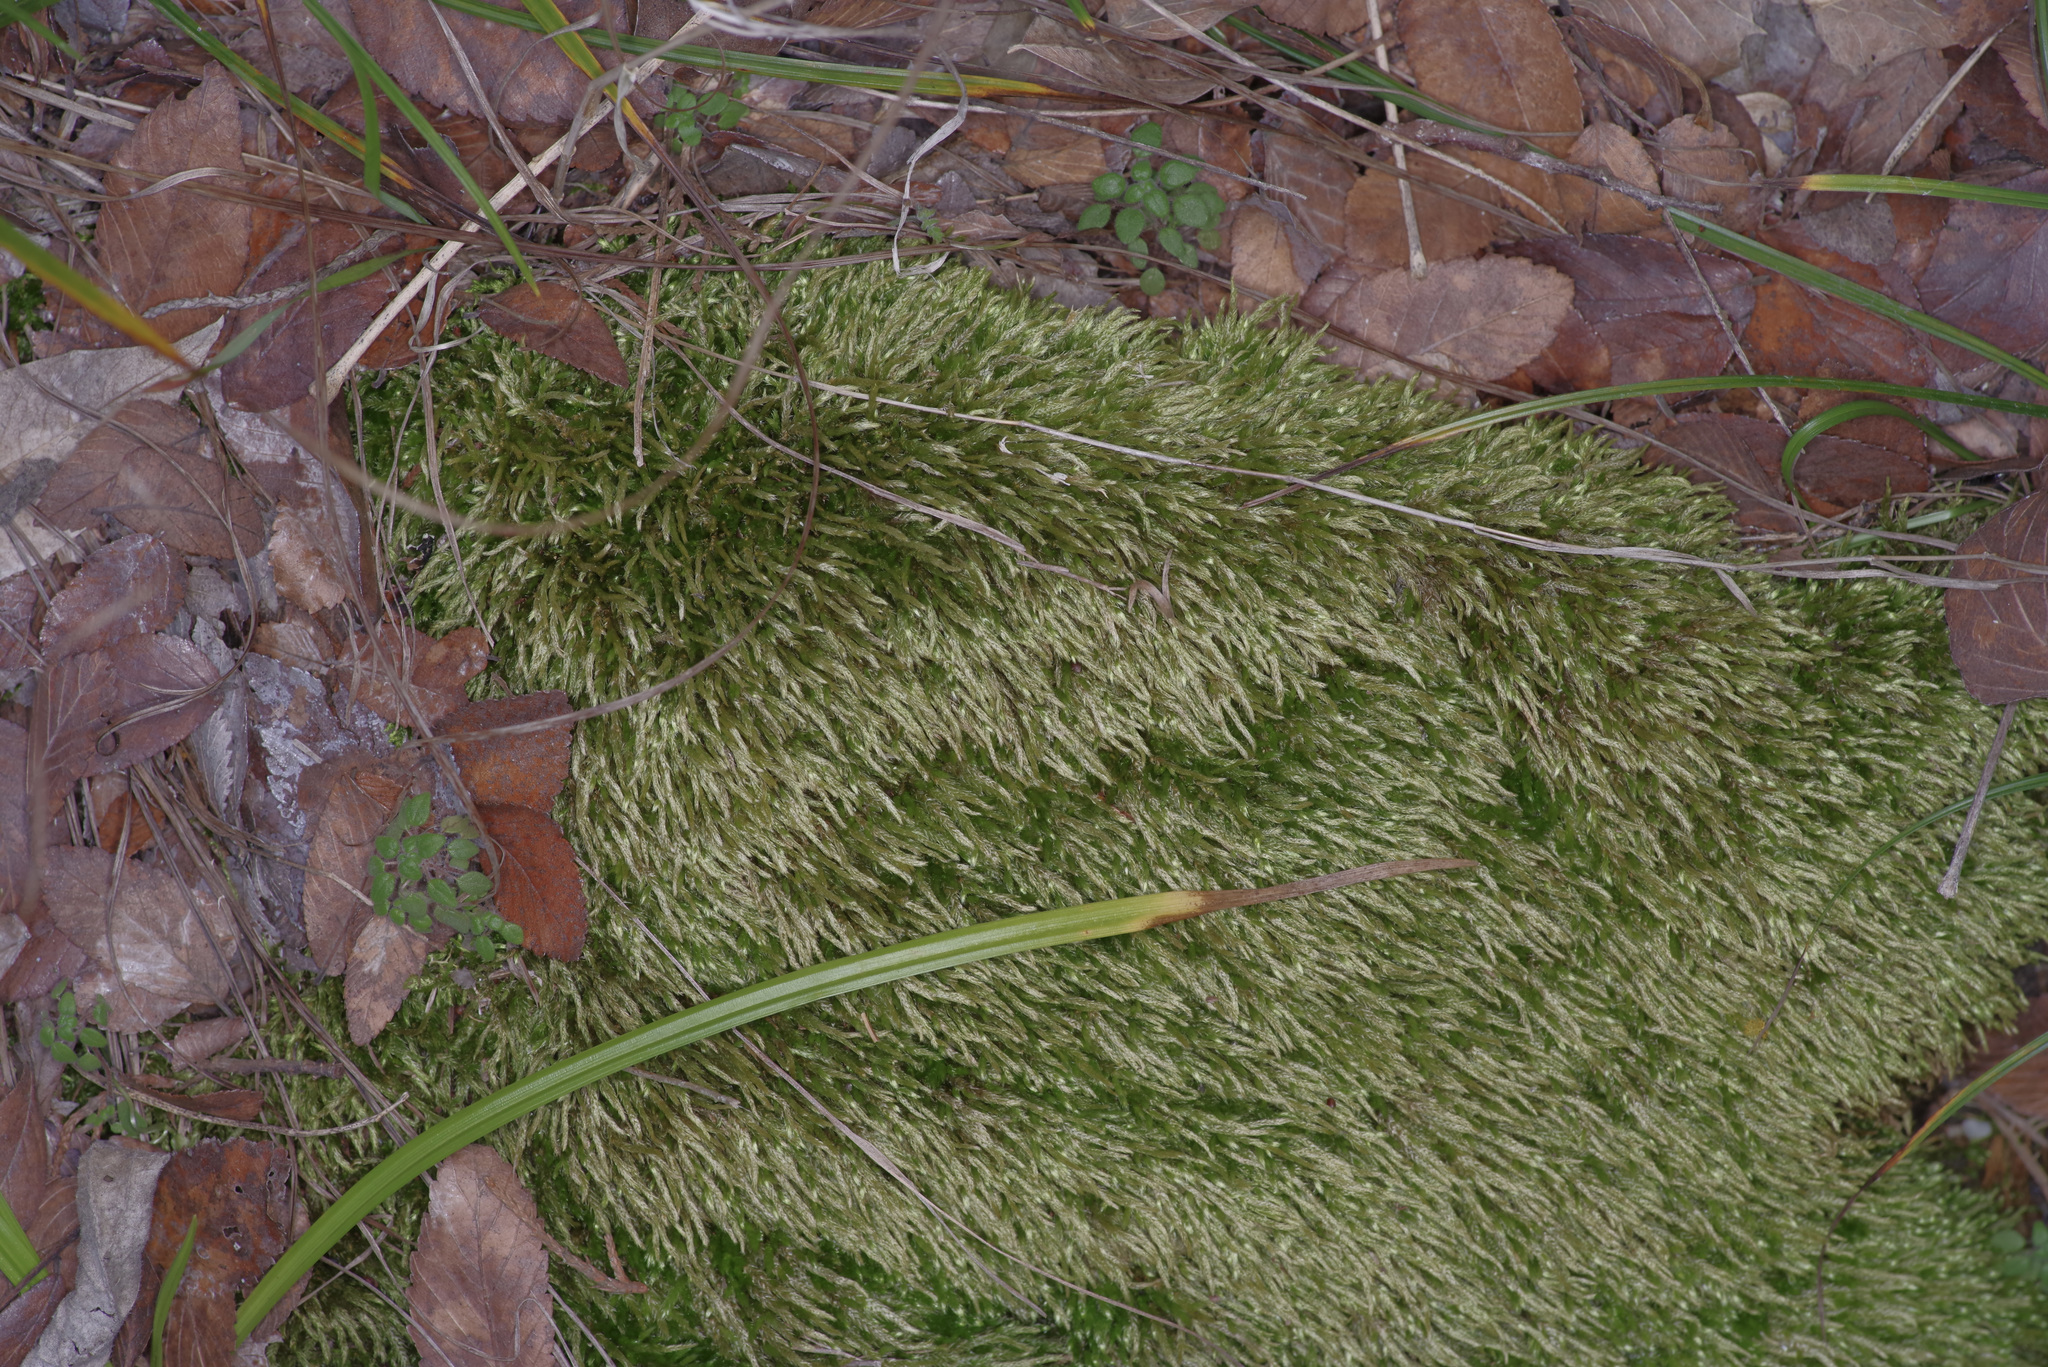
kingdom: Plantae
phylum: Bryophyta
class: Bryopsida
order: Hypnales
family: Entodontaceae
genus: Entodon
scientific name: Entodon seductrix
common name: Round-stemmed entodon moss
